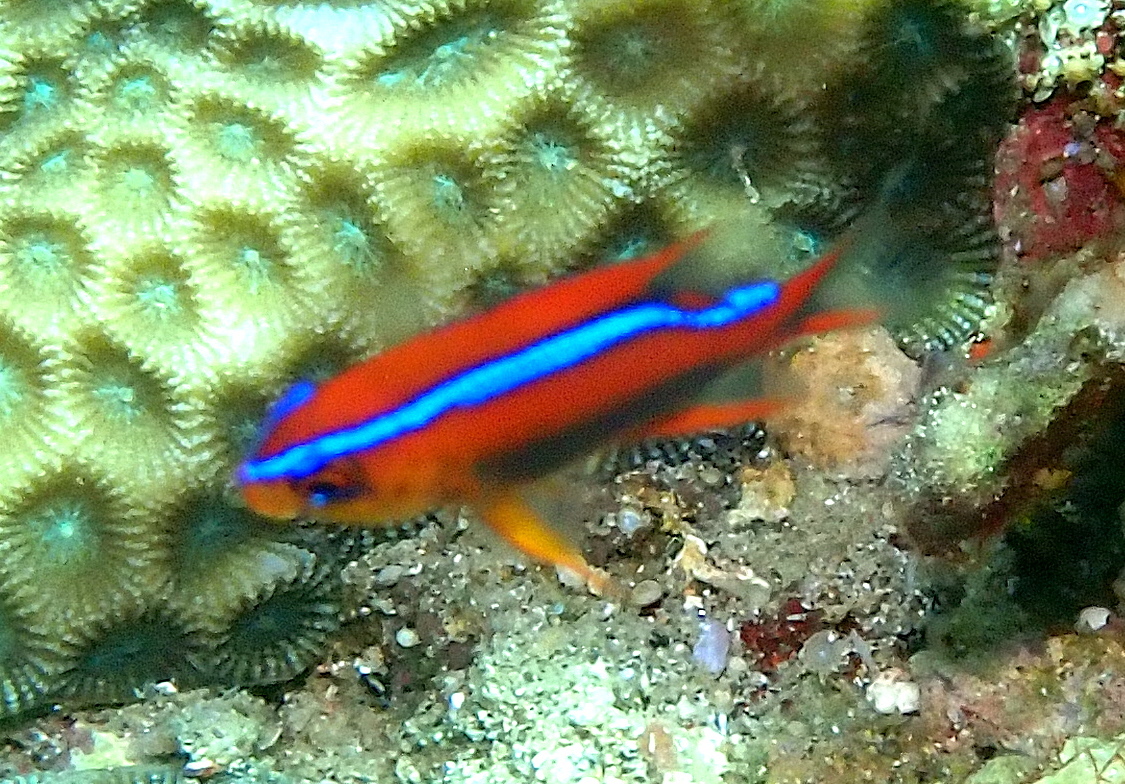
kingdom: Animalia
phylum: Chordata
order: Perciformes
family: Pomacentridae
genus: Neoglyphidodon
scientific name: Neoglyphidodon crossi
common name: Cross' damsel
